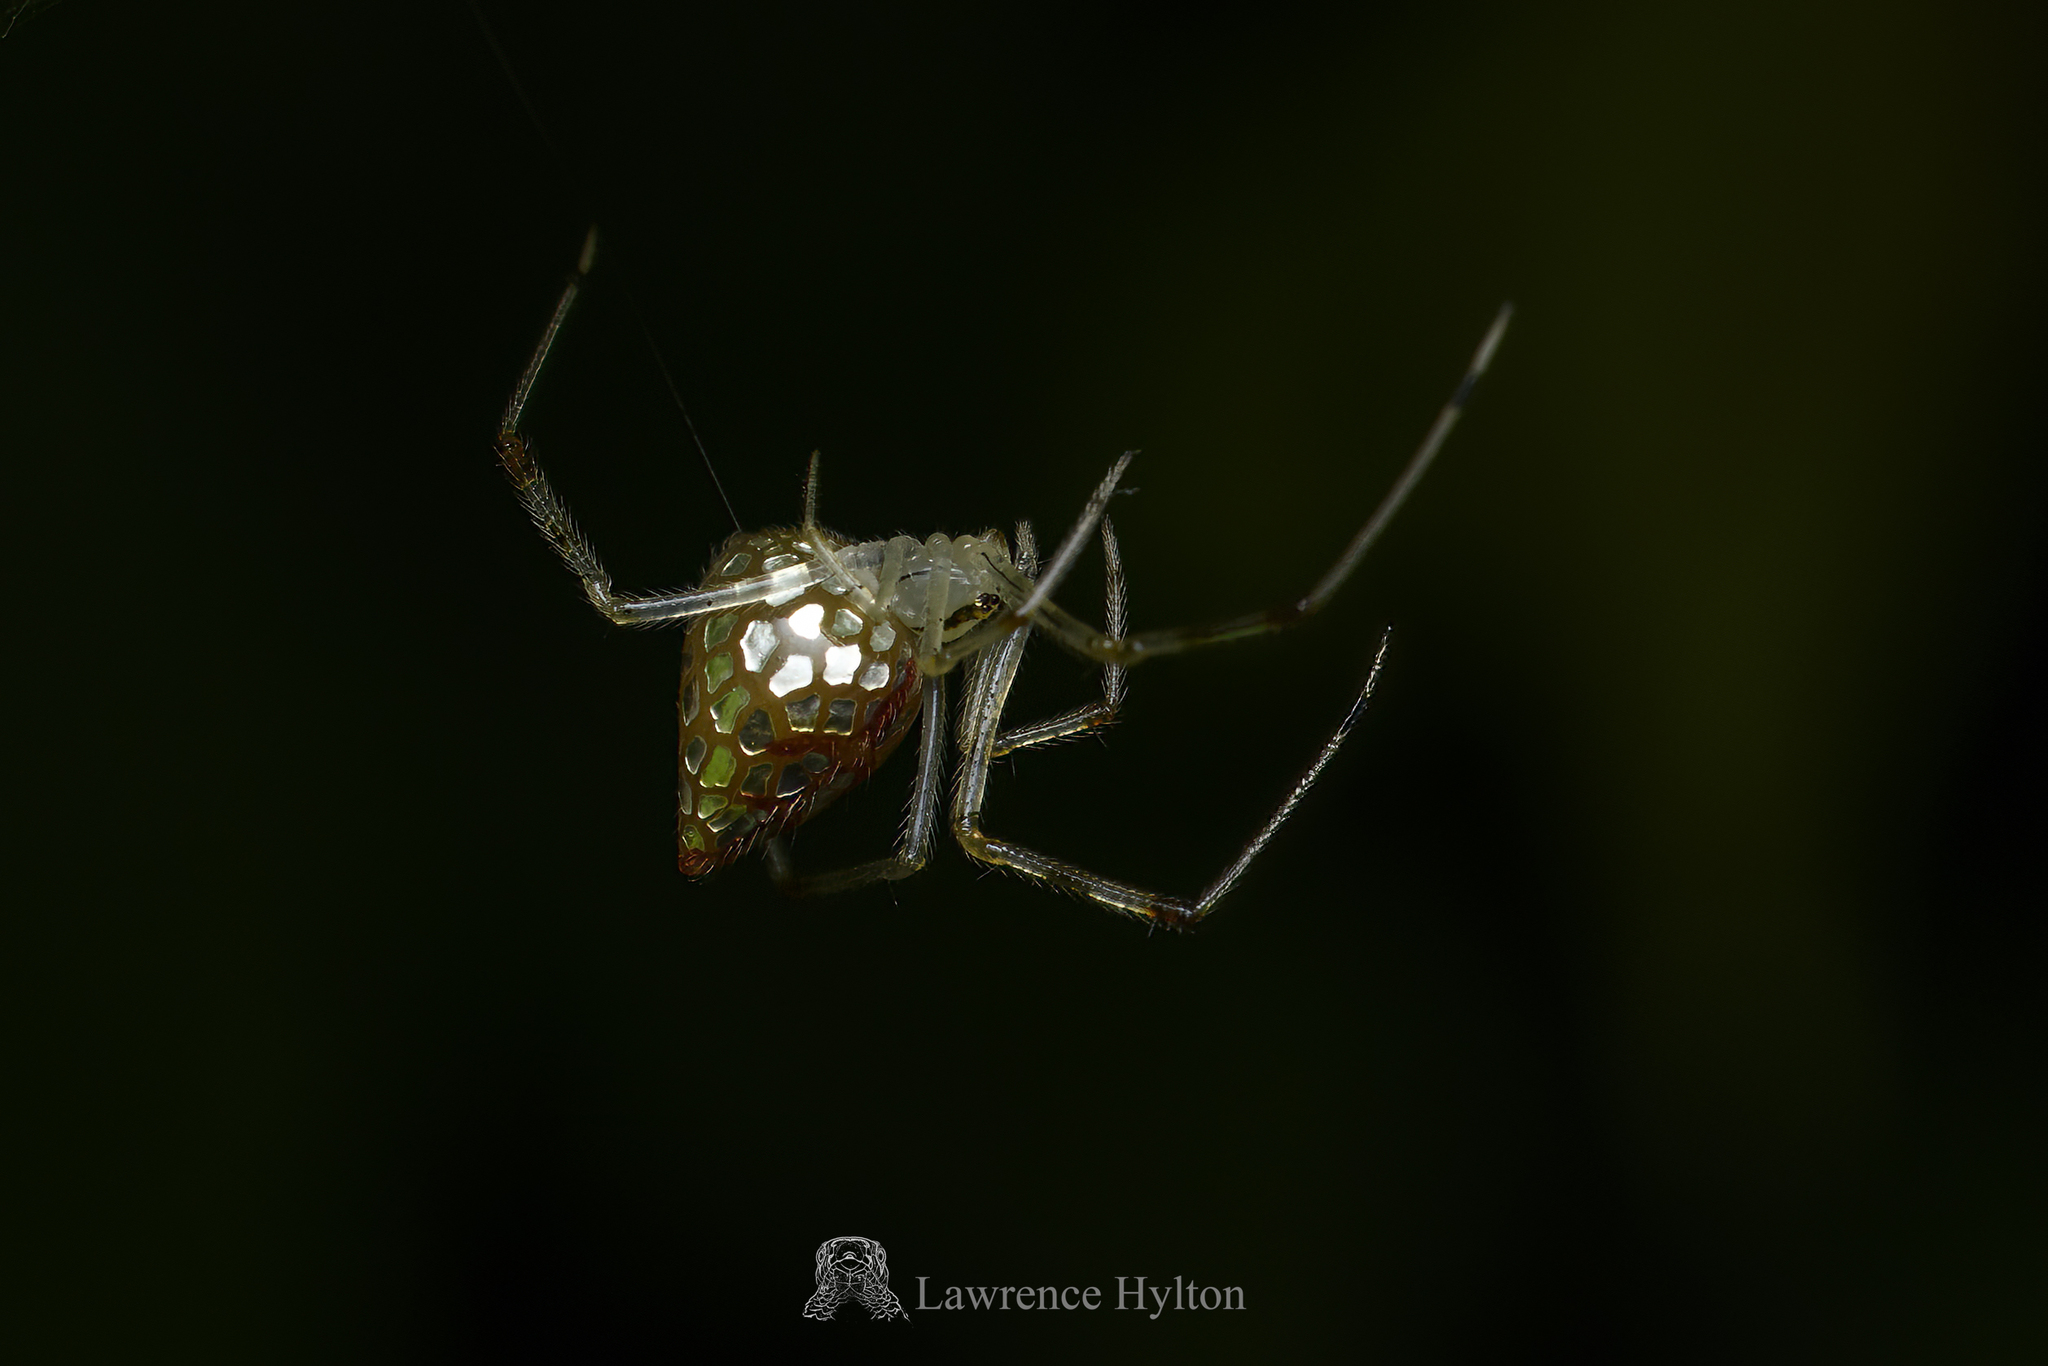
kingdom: Animalia
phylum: Arthropoda
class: Arachnida
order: Araneae
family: Theridiidae
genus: Thwaitesia
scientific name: Thwaitesia margaritifera
